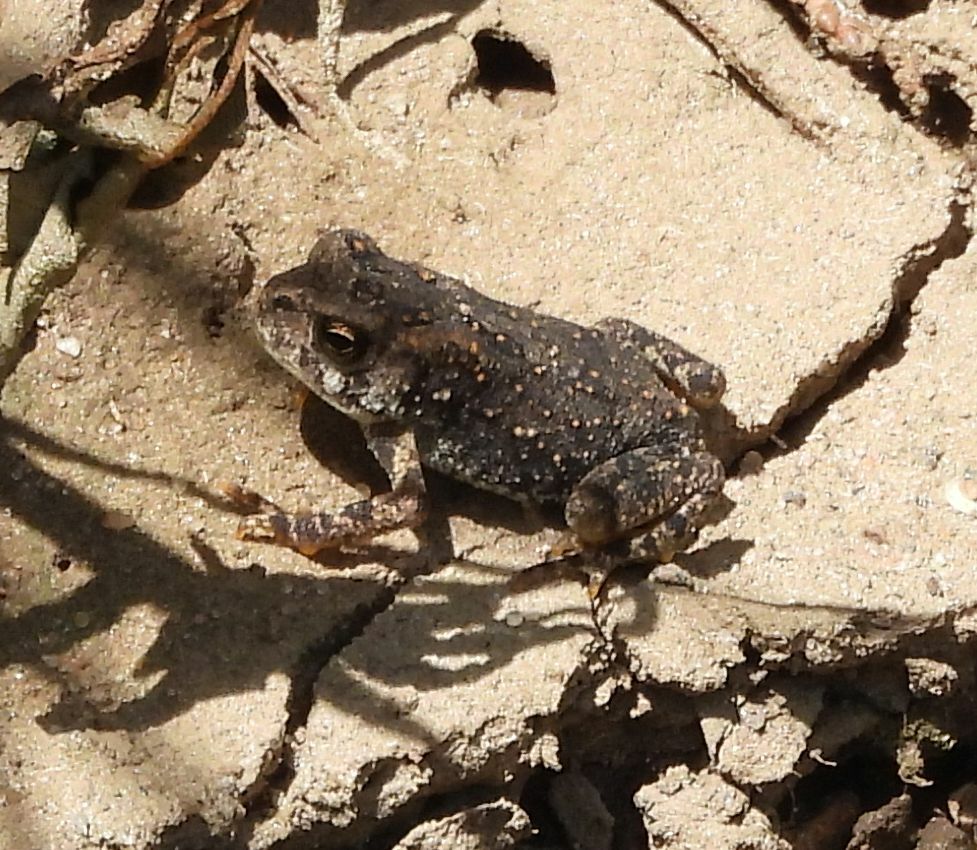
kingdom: Animalia
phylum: Chordata
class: Amphibia
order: Anura
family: Bufonidae
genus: Anaxyrus
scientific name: Anaxyrus americanus
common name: American toad
